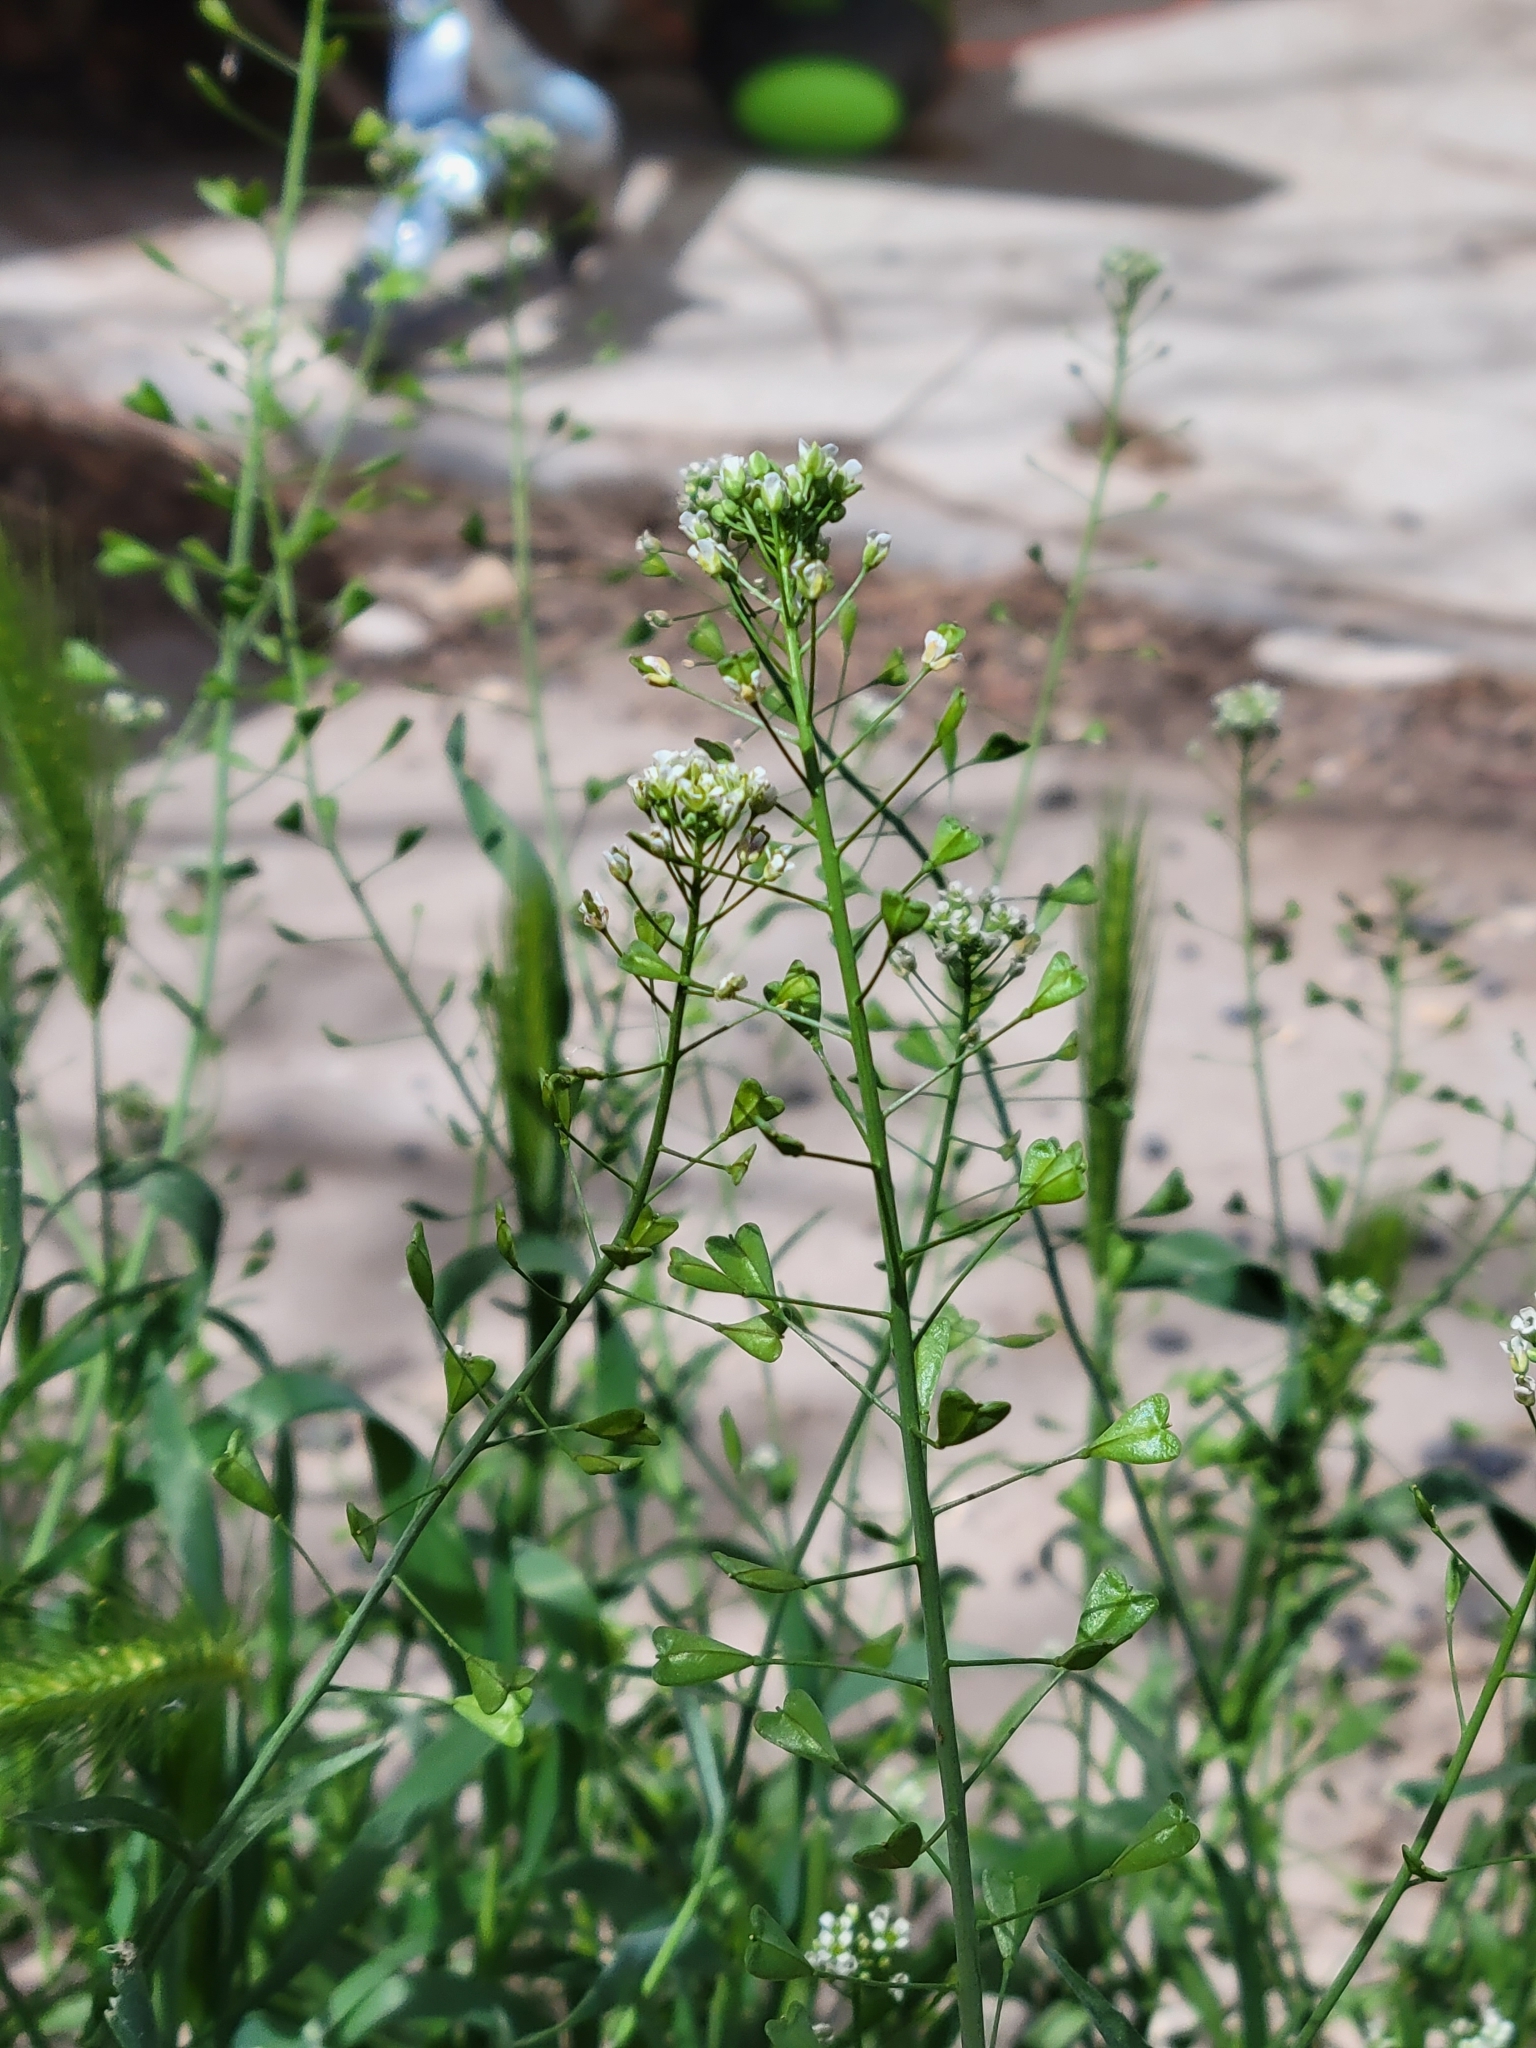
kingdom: Plantae
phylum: Tracheophyta
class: Magnoliopsida
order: Brassicales
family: Brassicaceae
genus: Capsella
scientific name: Capsella bursa-pastoris
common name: Shepherd's purse
